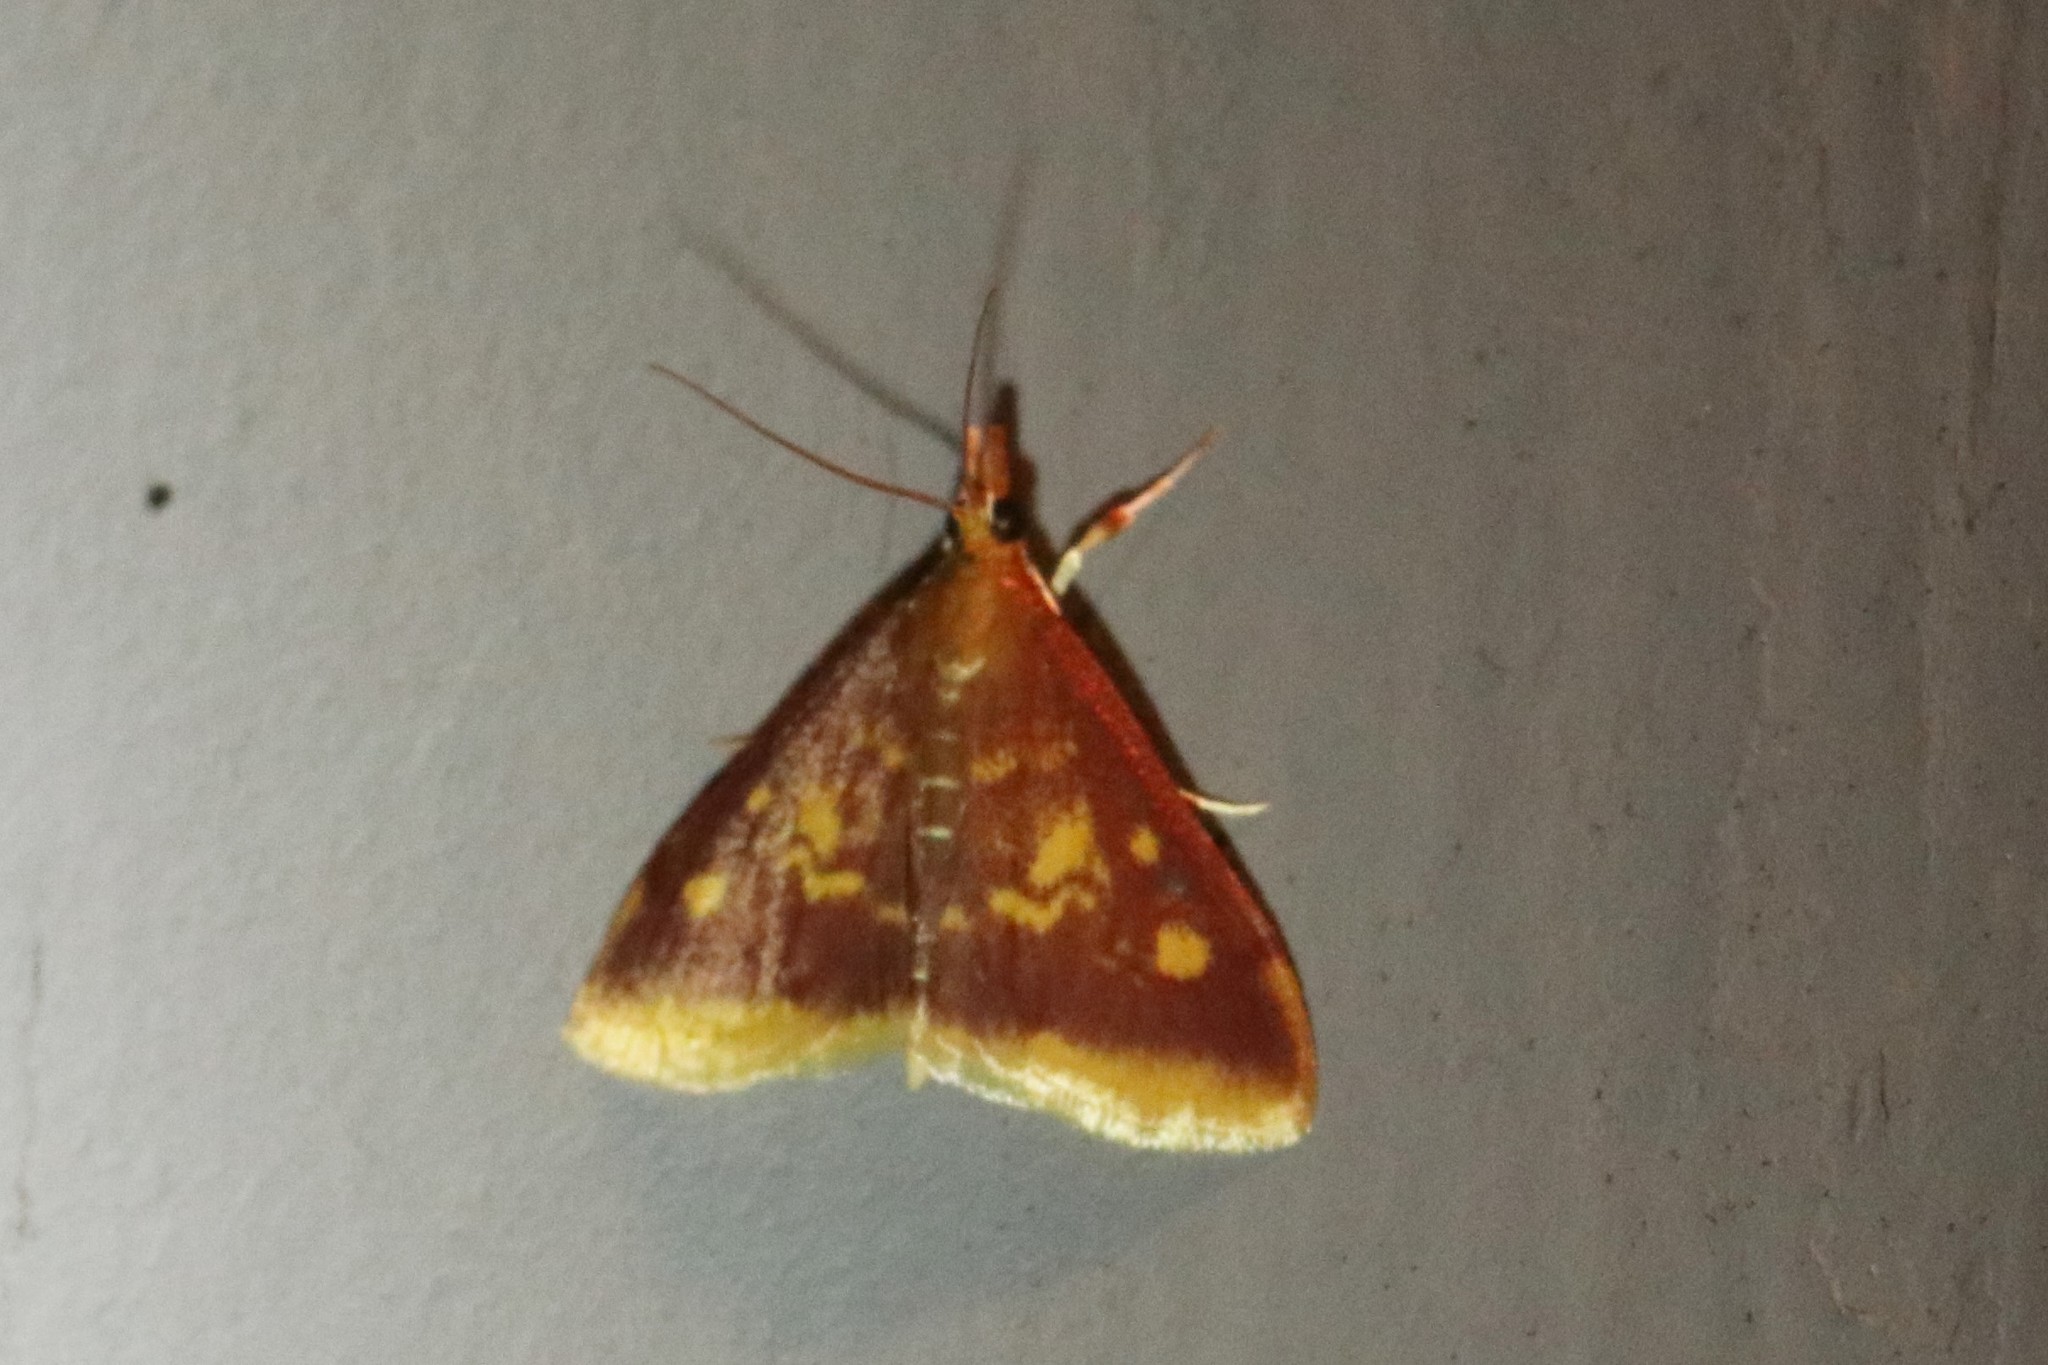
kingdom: Animalia
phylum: Arthropoda
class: Insecta
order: Lepidoptera
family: Crambidae
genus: Pyrausta
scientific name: Pyrausta acrionalis
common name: Mint-loving pyrausta moth
